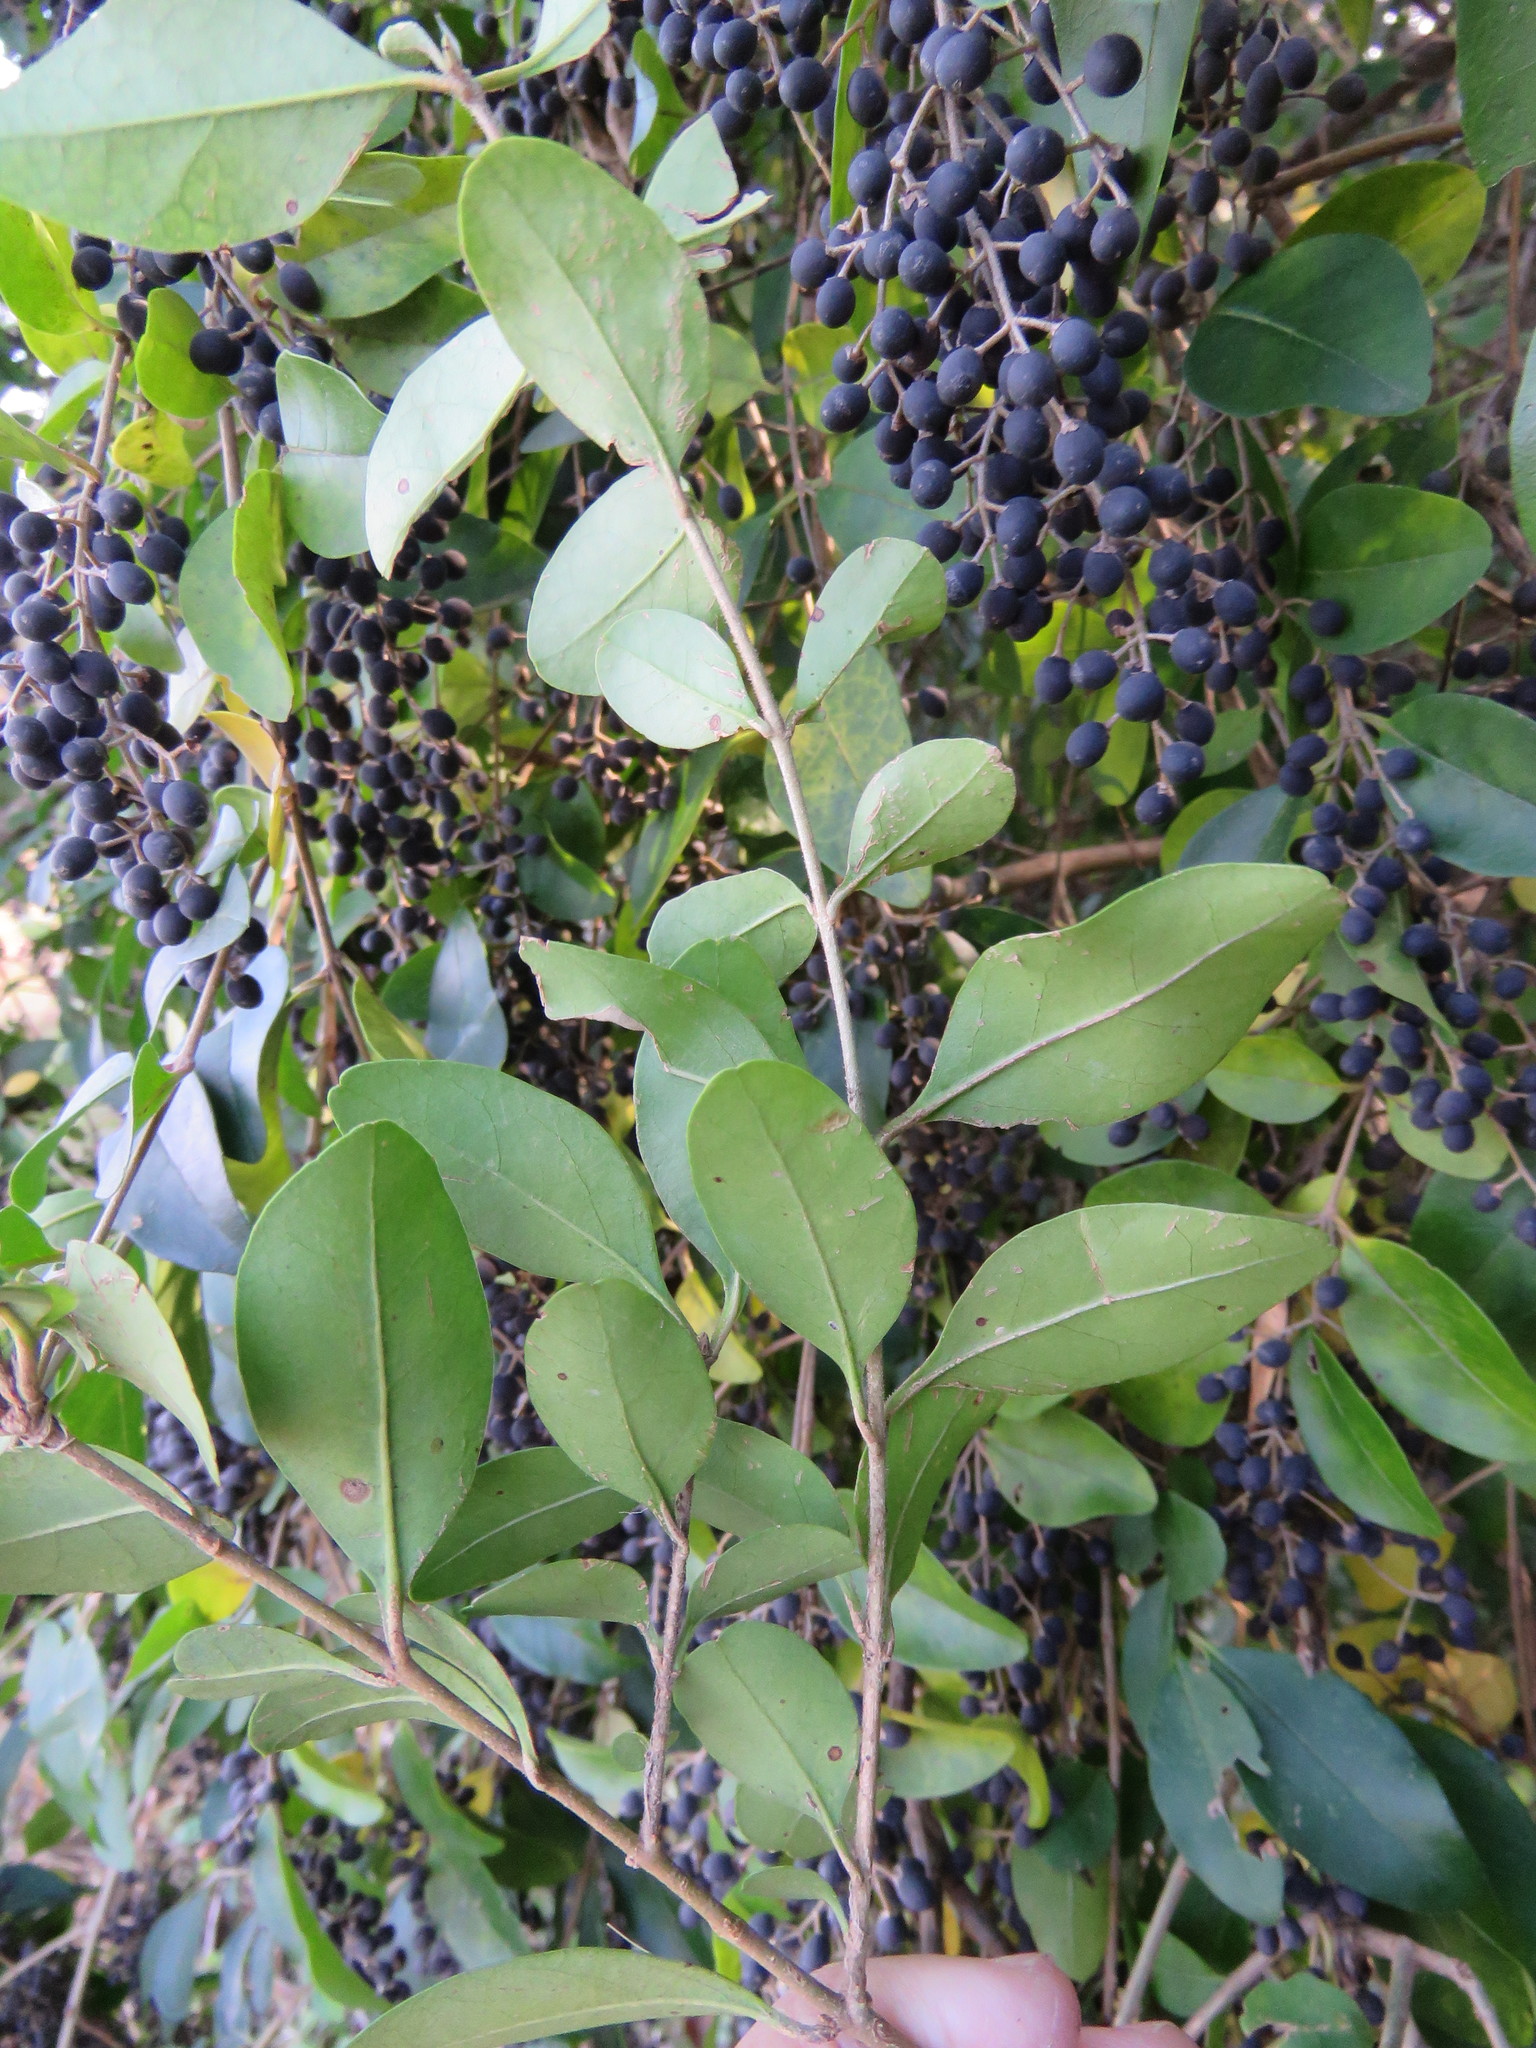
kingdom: Plantae
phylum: Tracheophyta
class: Magnoliopsida
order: Lamiales
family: Oleaceae
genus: Ligustrum
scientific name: Ligustrum sinense
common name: Chinese privet
